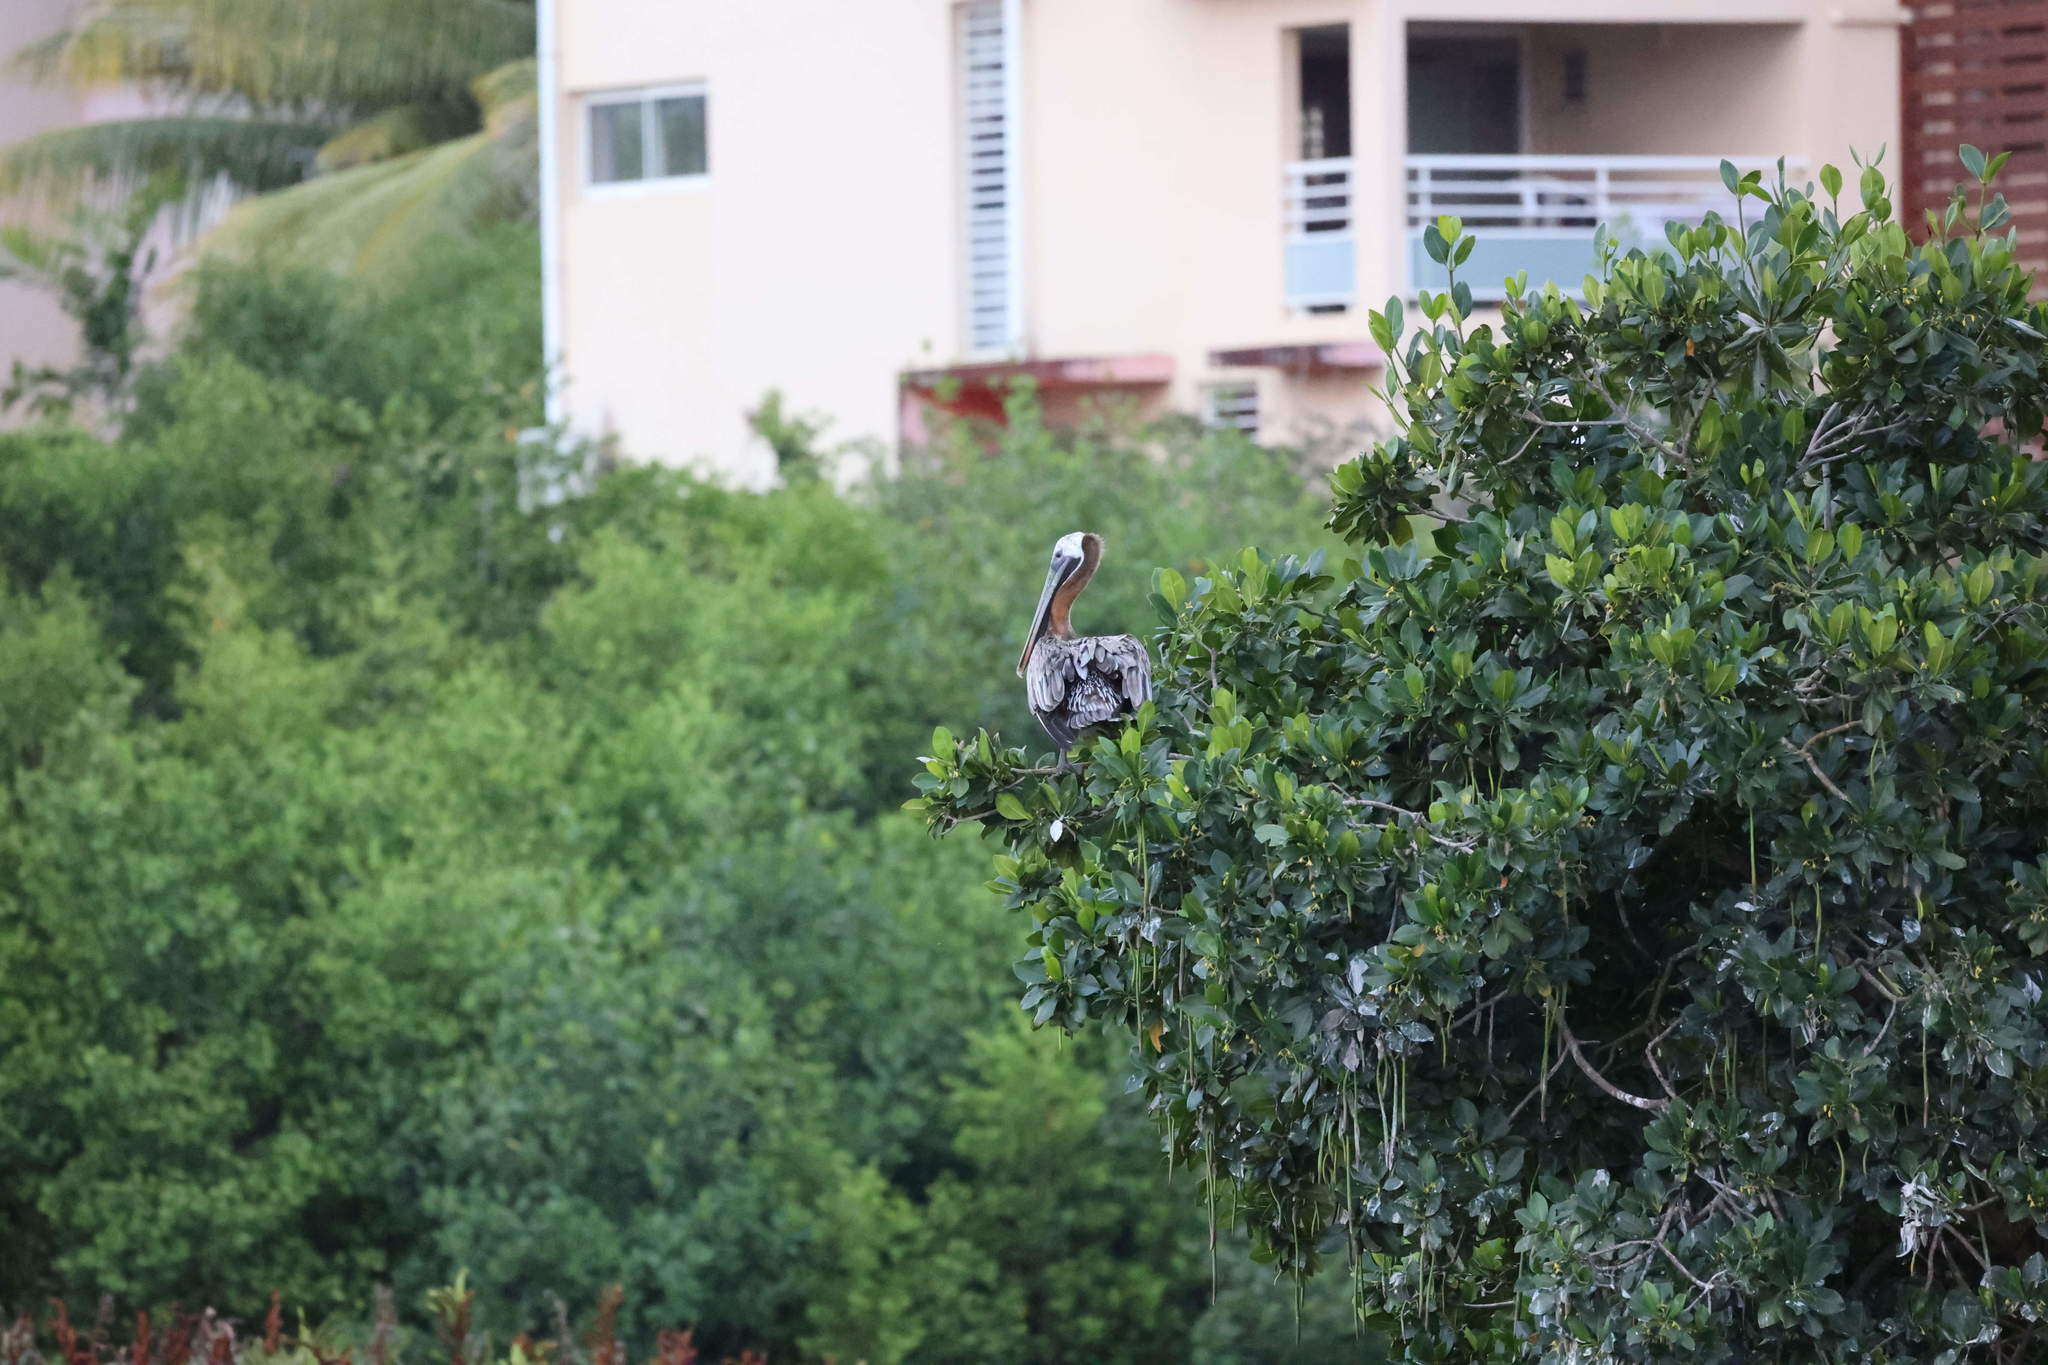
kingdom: Animalia
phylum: Chordata
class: Aves
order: Pelecaniformes
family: Pelecanidae
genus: Pelecanus
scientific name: Pelecanus occidentalis
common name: Brown pelican
